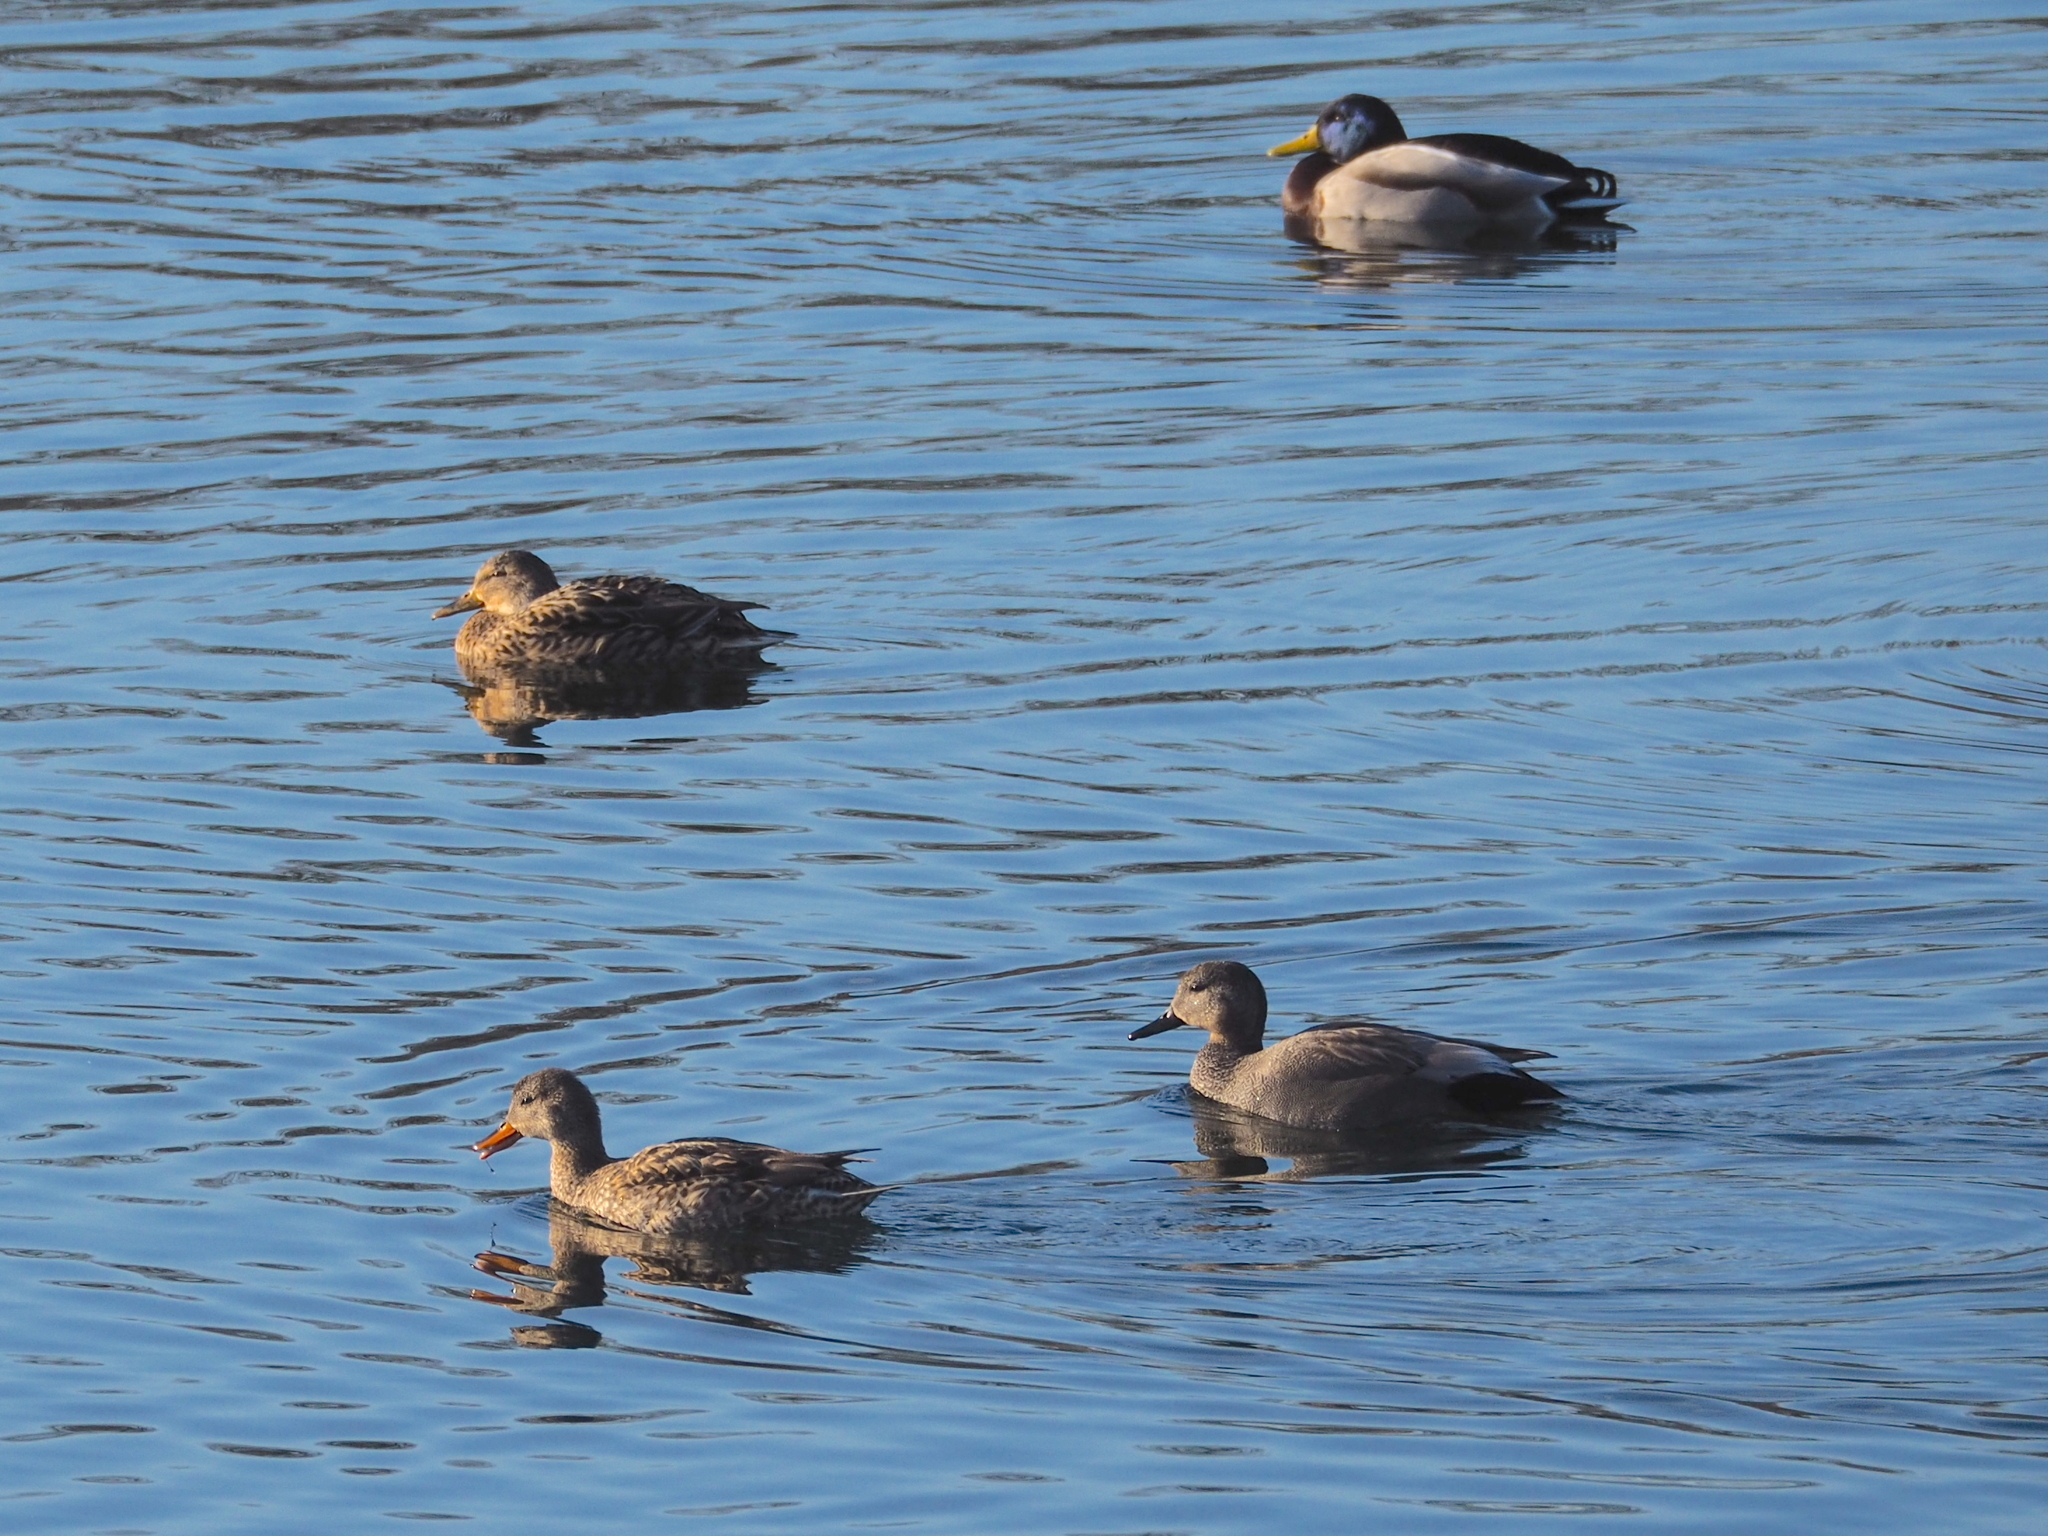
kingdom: Animalia
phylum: Chordata
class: Aves
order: Anseriformes
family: Anatidae
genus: Mareca
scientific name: Mareca strepera
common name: Gadwall
